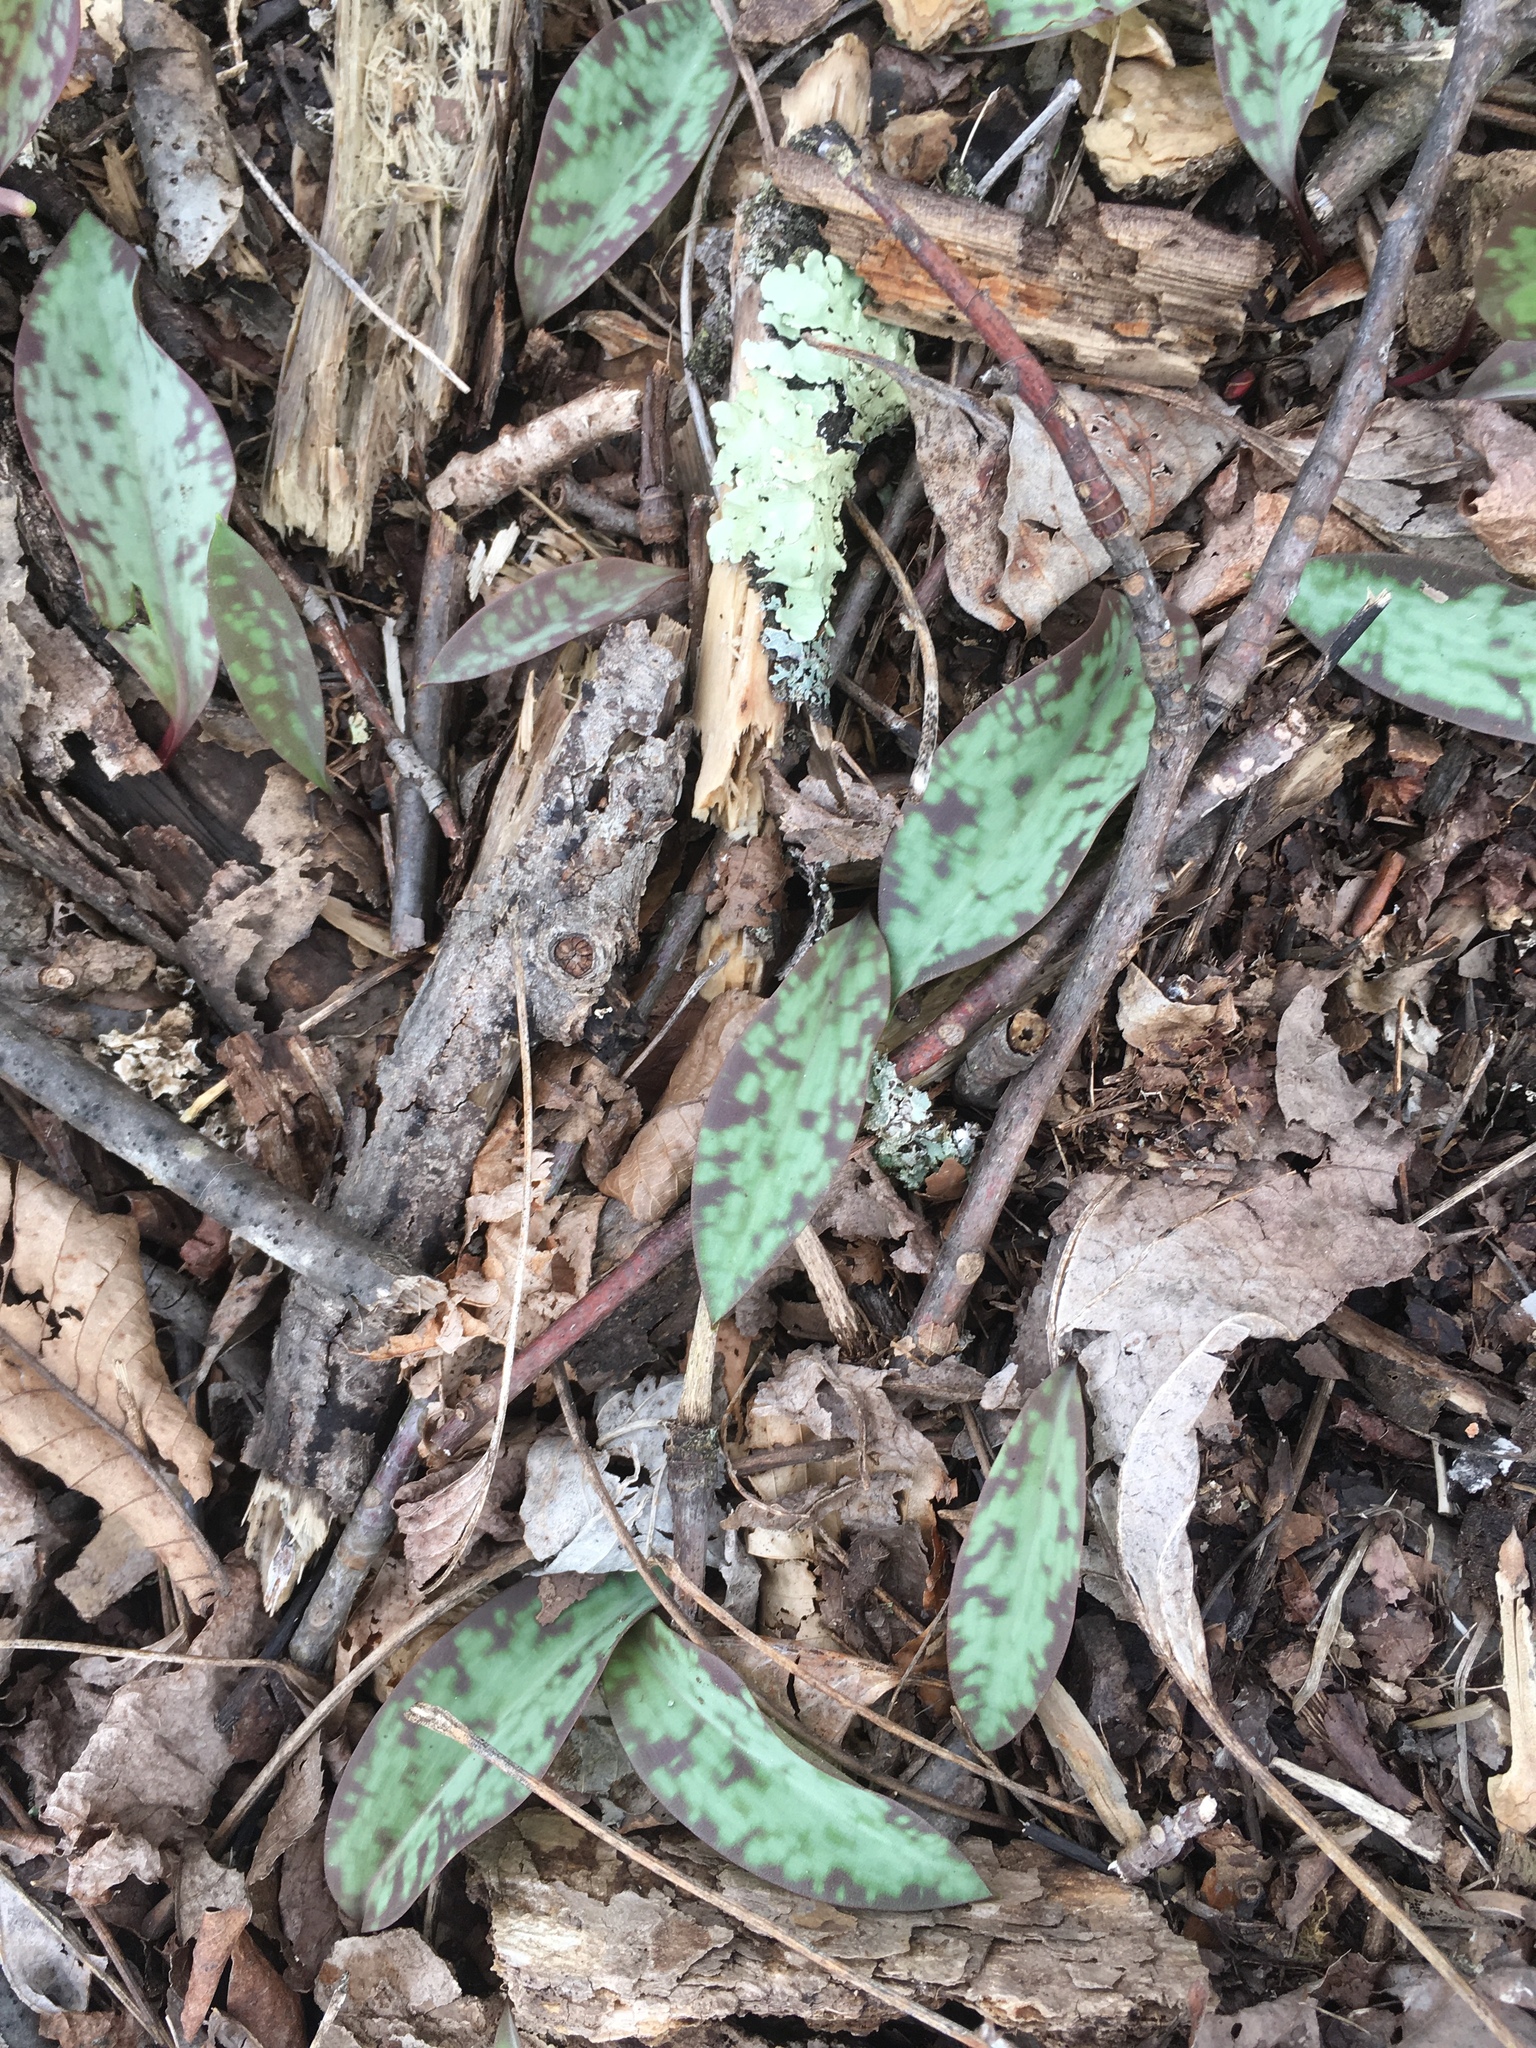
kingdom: Plantae
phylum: Tracheophyta
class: Liliopsida
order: Liliales
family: Liliaceae
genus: Erythronium
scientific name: Erythronium americanum
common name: Yellow adder's-tongue
